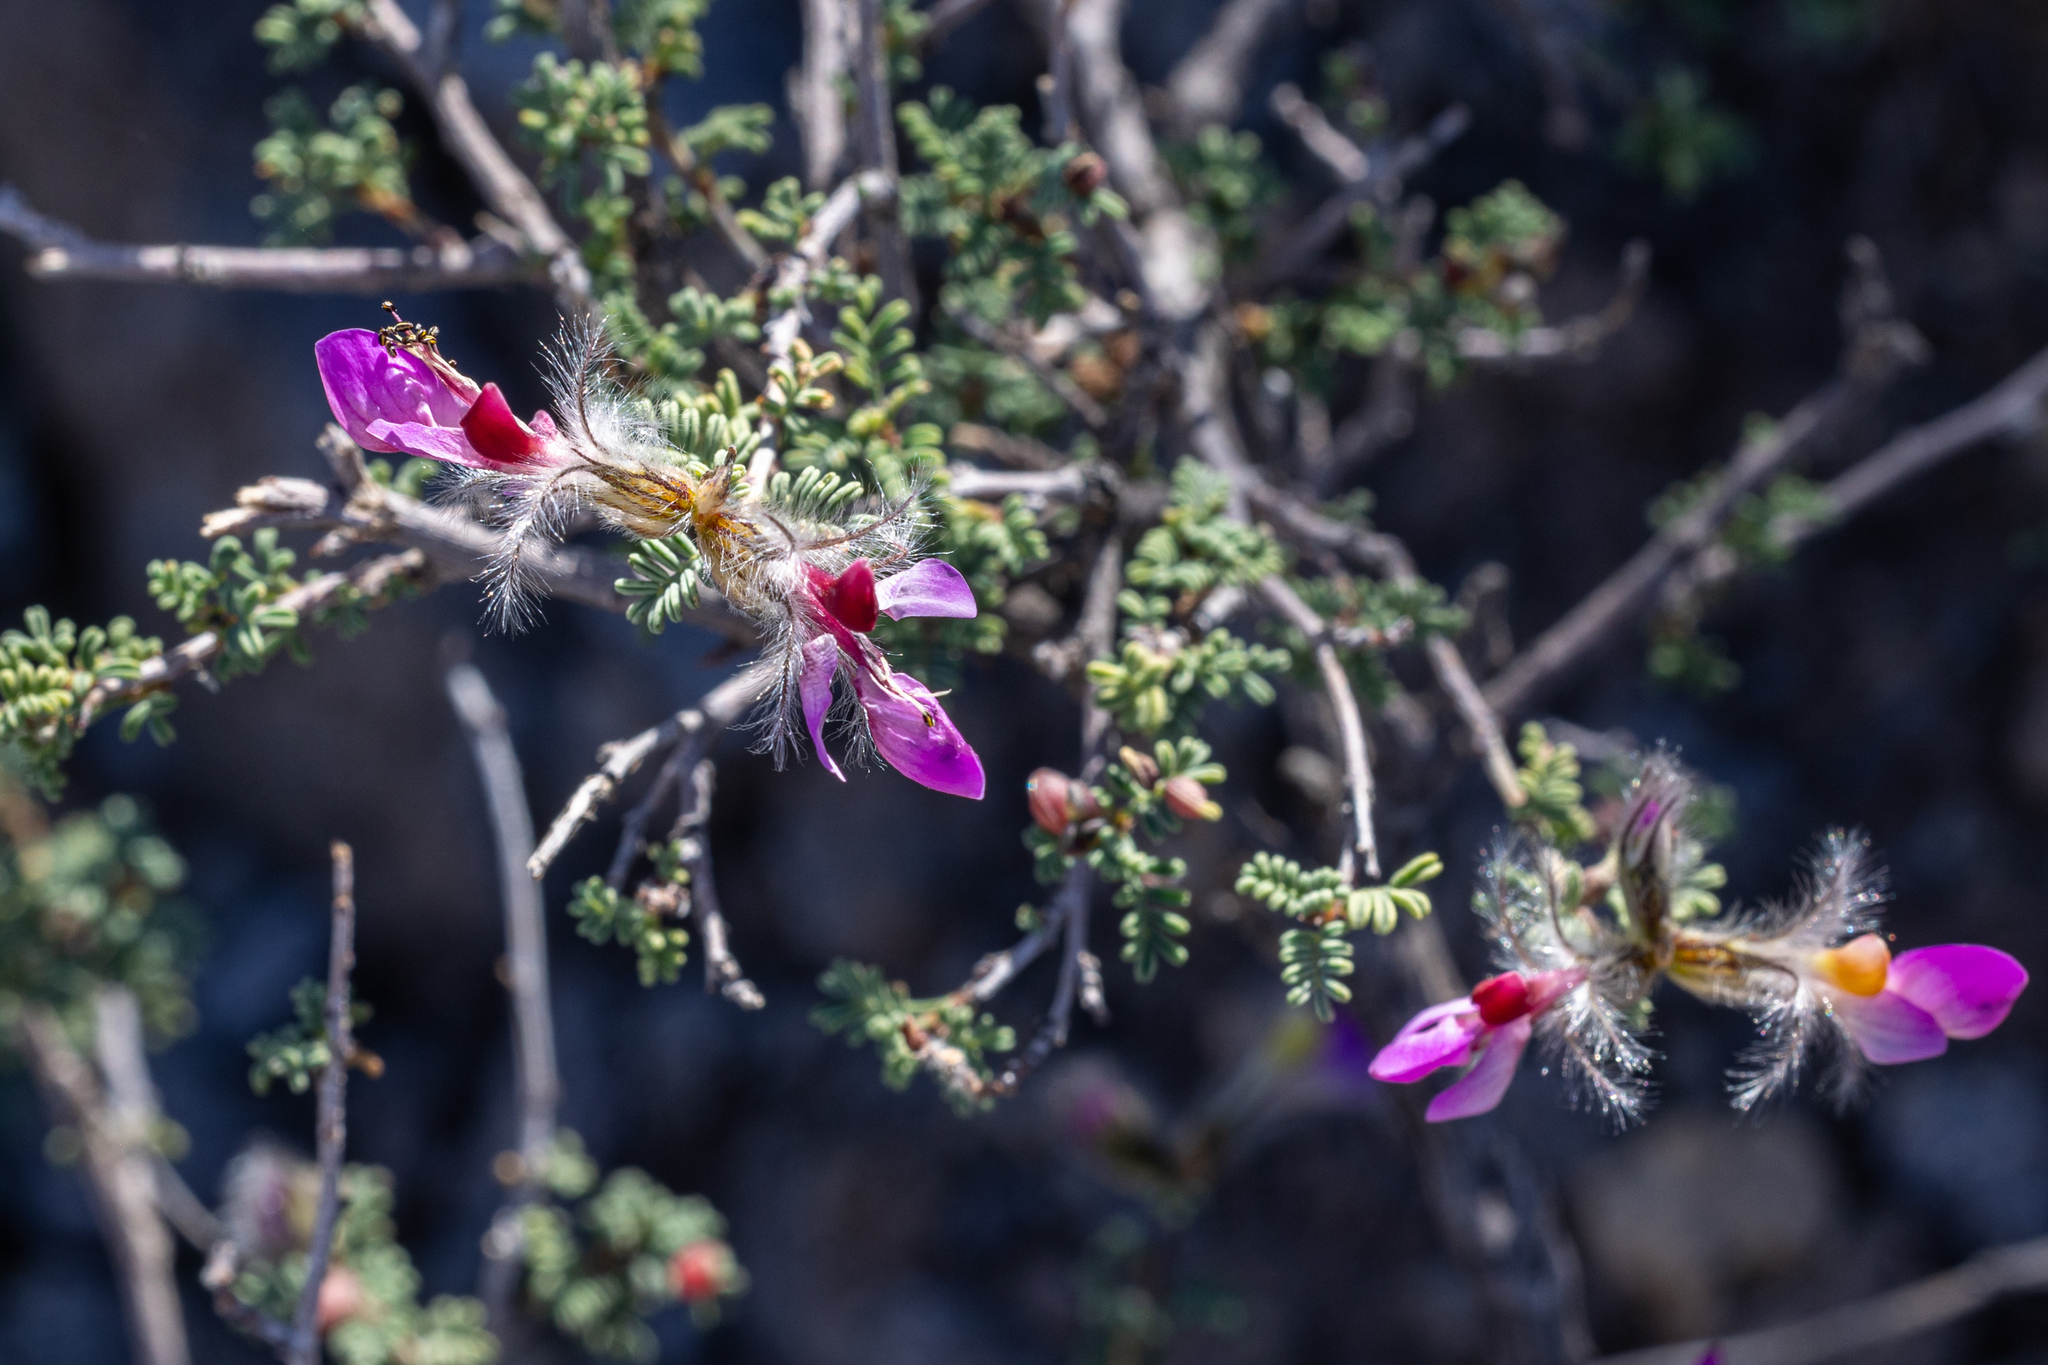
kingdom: Plantae
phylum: Tracheophyta
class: Magnoliopsida
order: Fabales
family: Fabaceae
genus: Dalea
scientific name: Dalea formosa
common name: Feather-plume dalea
